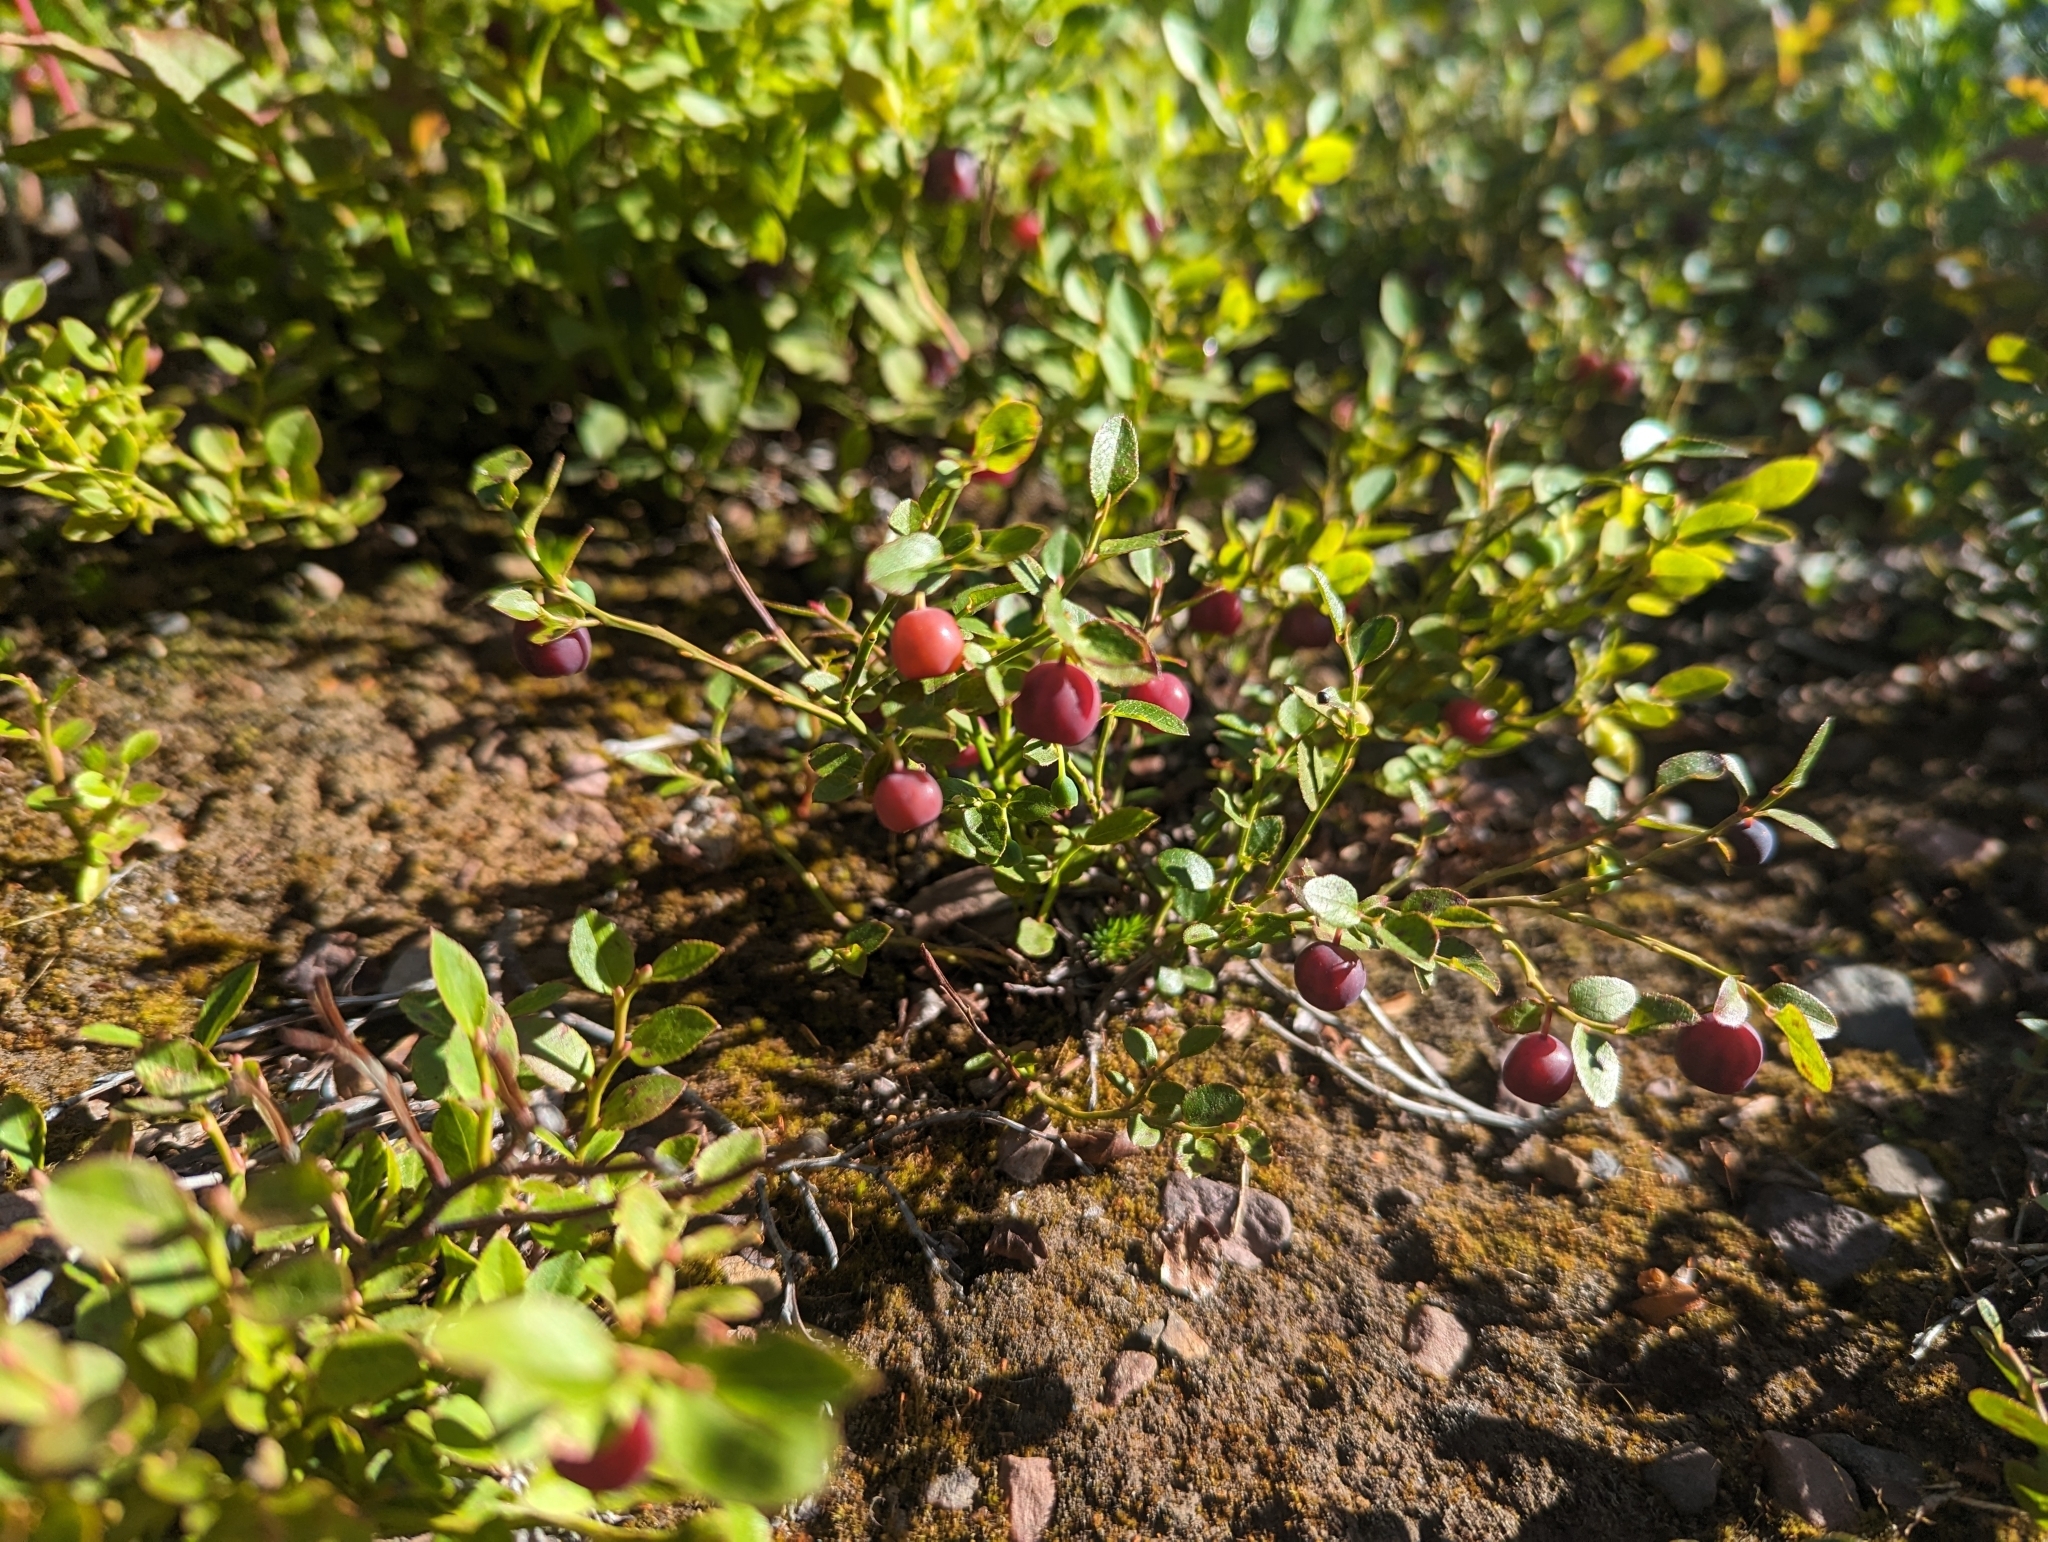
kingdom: Plantae
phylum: Tracheophyta
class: Magnoliopsida
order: Ericales
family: Ericaceae
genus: Vaccinium
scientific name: Vaccinium scoparium
